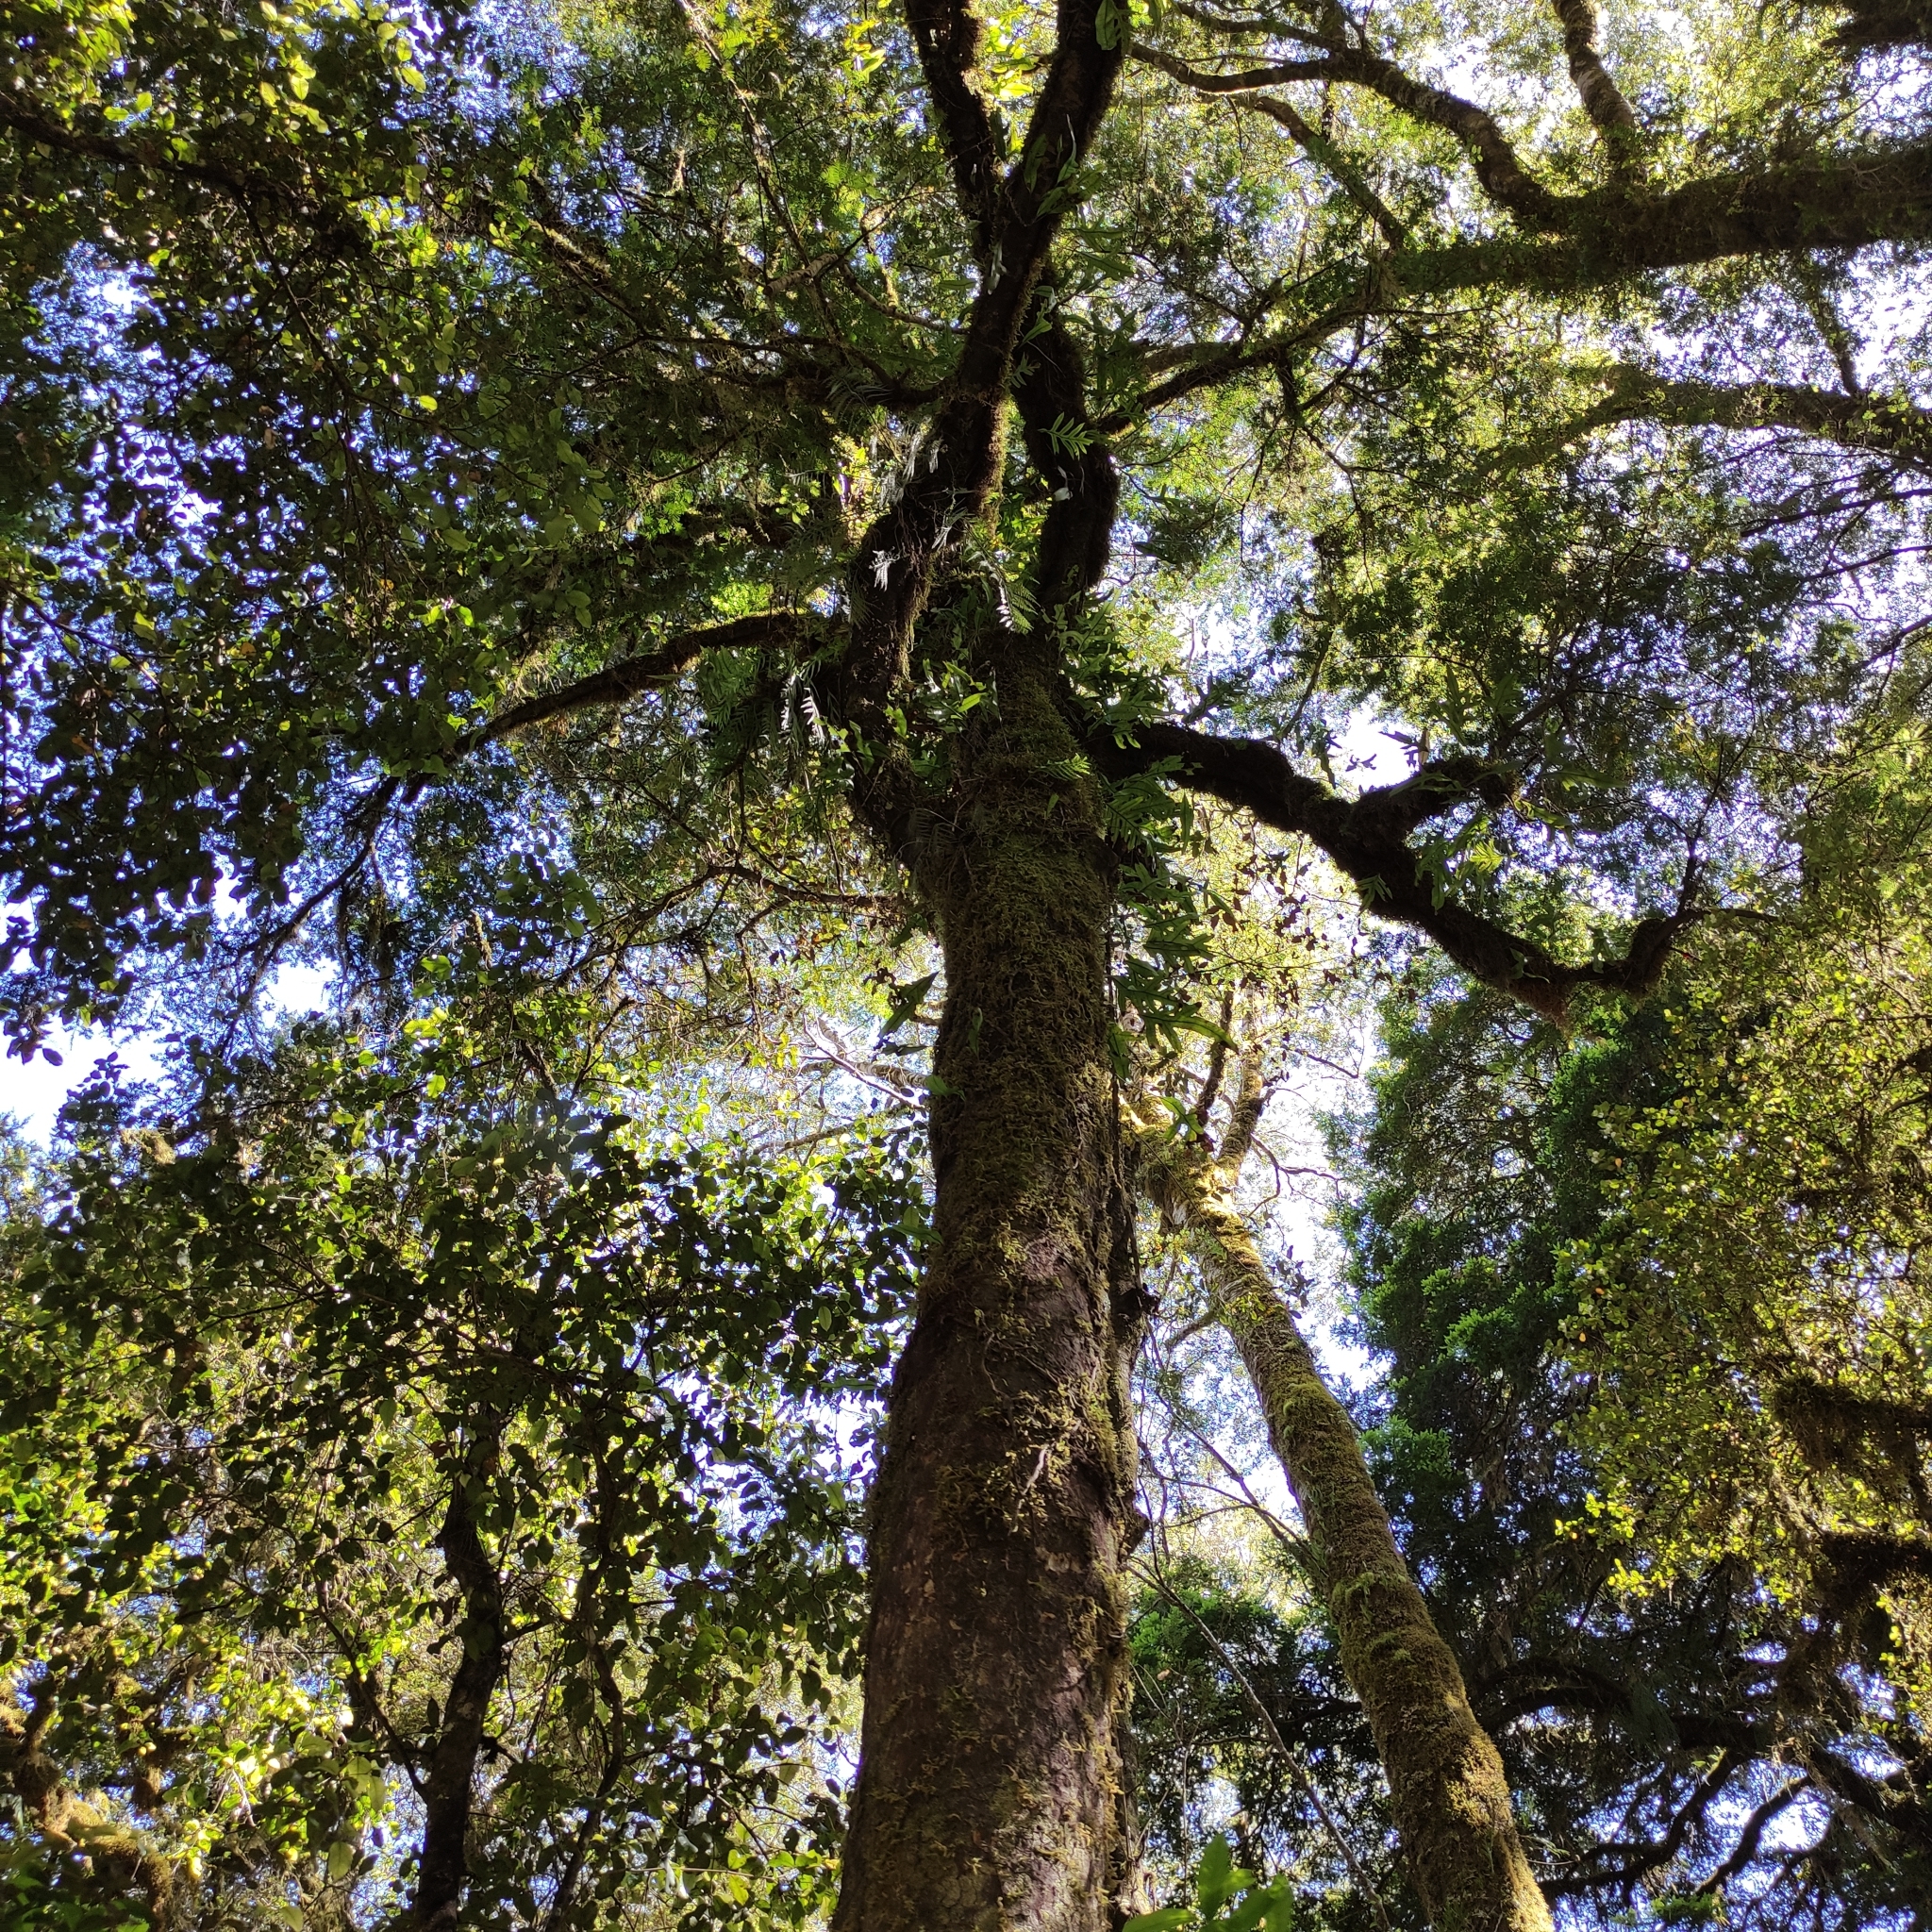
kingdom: Plantae
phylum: Tracheophyta
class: Pinopsida
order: Pinales
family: Podocarpaceae
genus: Prumnopitys
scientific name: Prumnopitys ferruginea
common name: Brown pine
